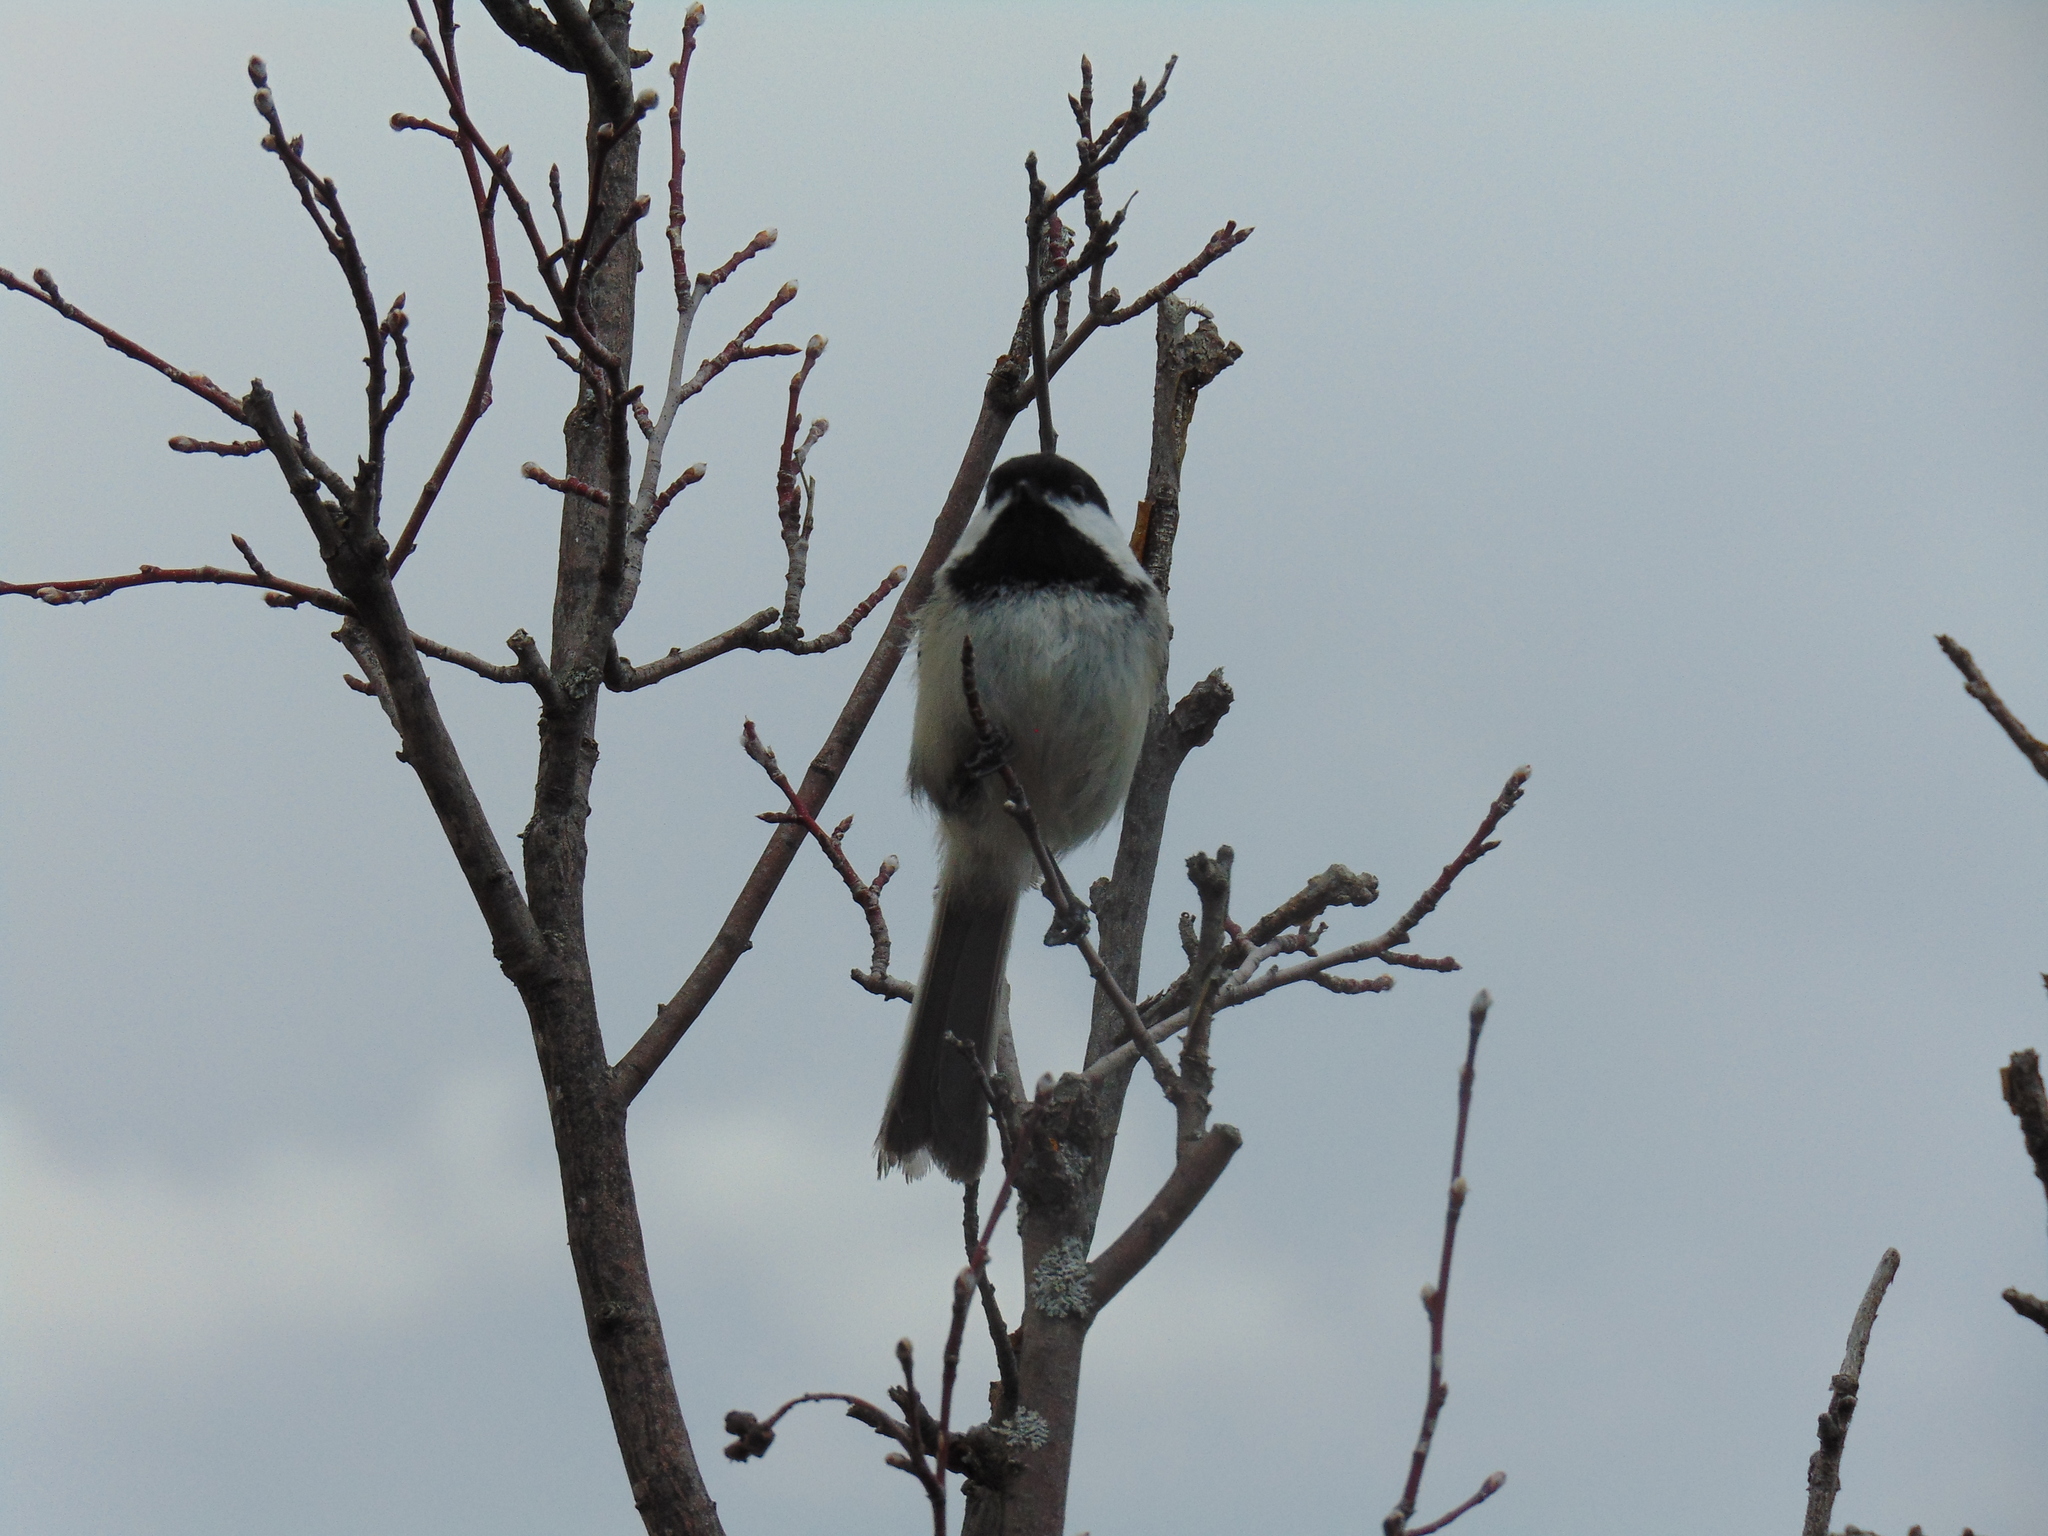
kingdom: Animalia
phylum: Chordata
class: Aves
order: Passeriformes
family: Paridae
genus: Poecile
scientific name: Poecile atricapillus
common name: Black-capped chickadee
